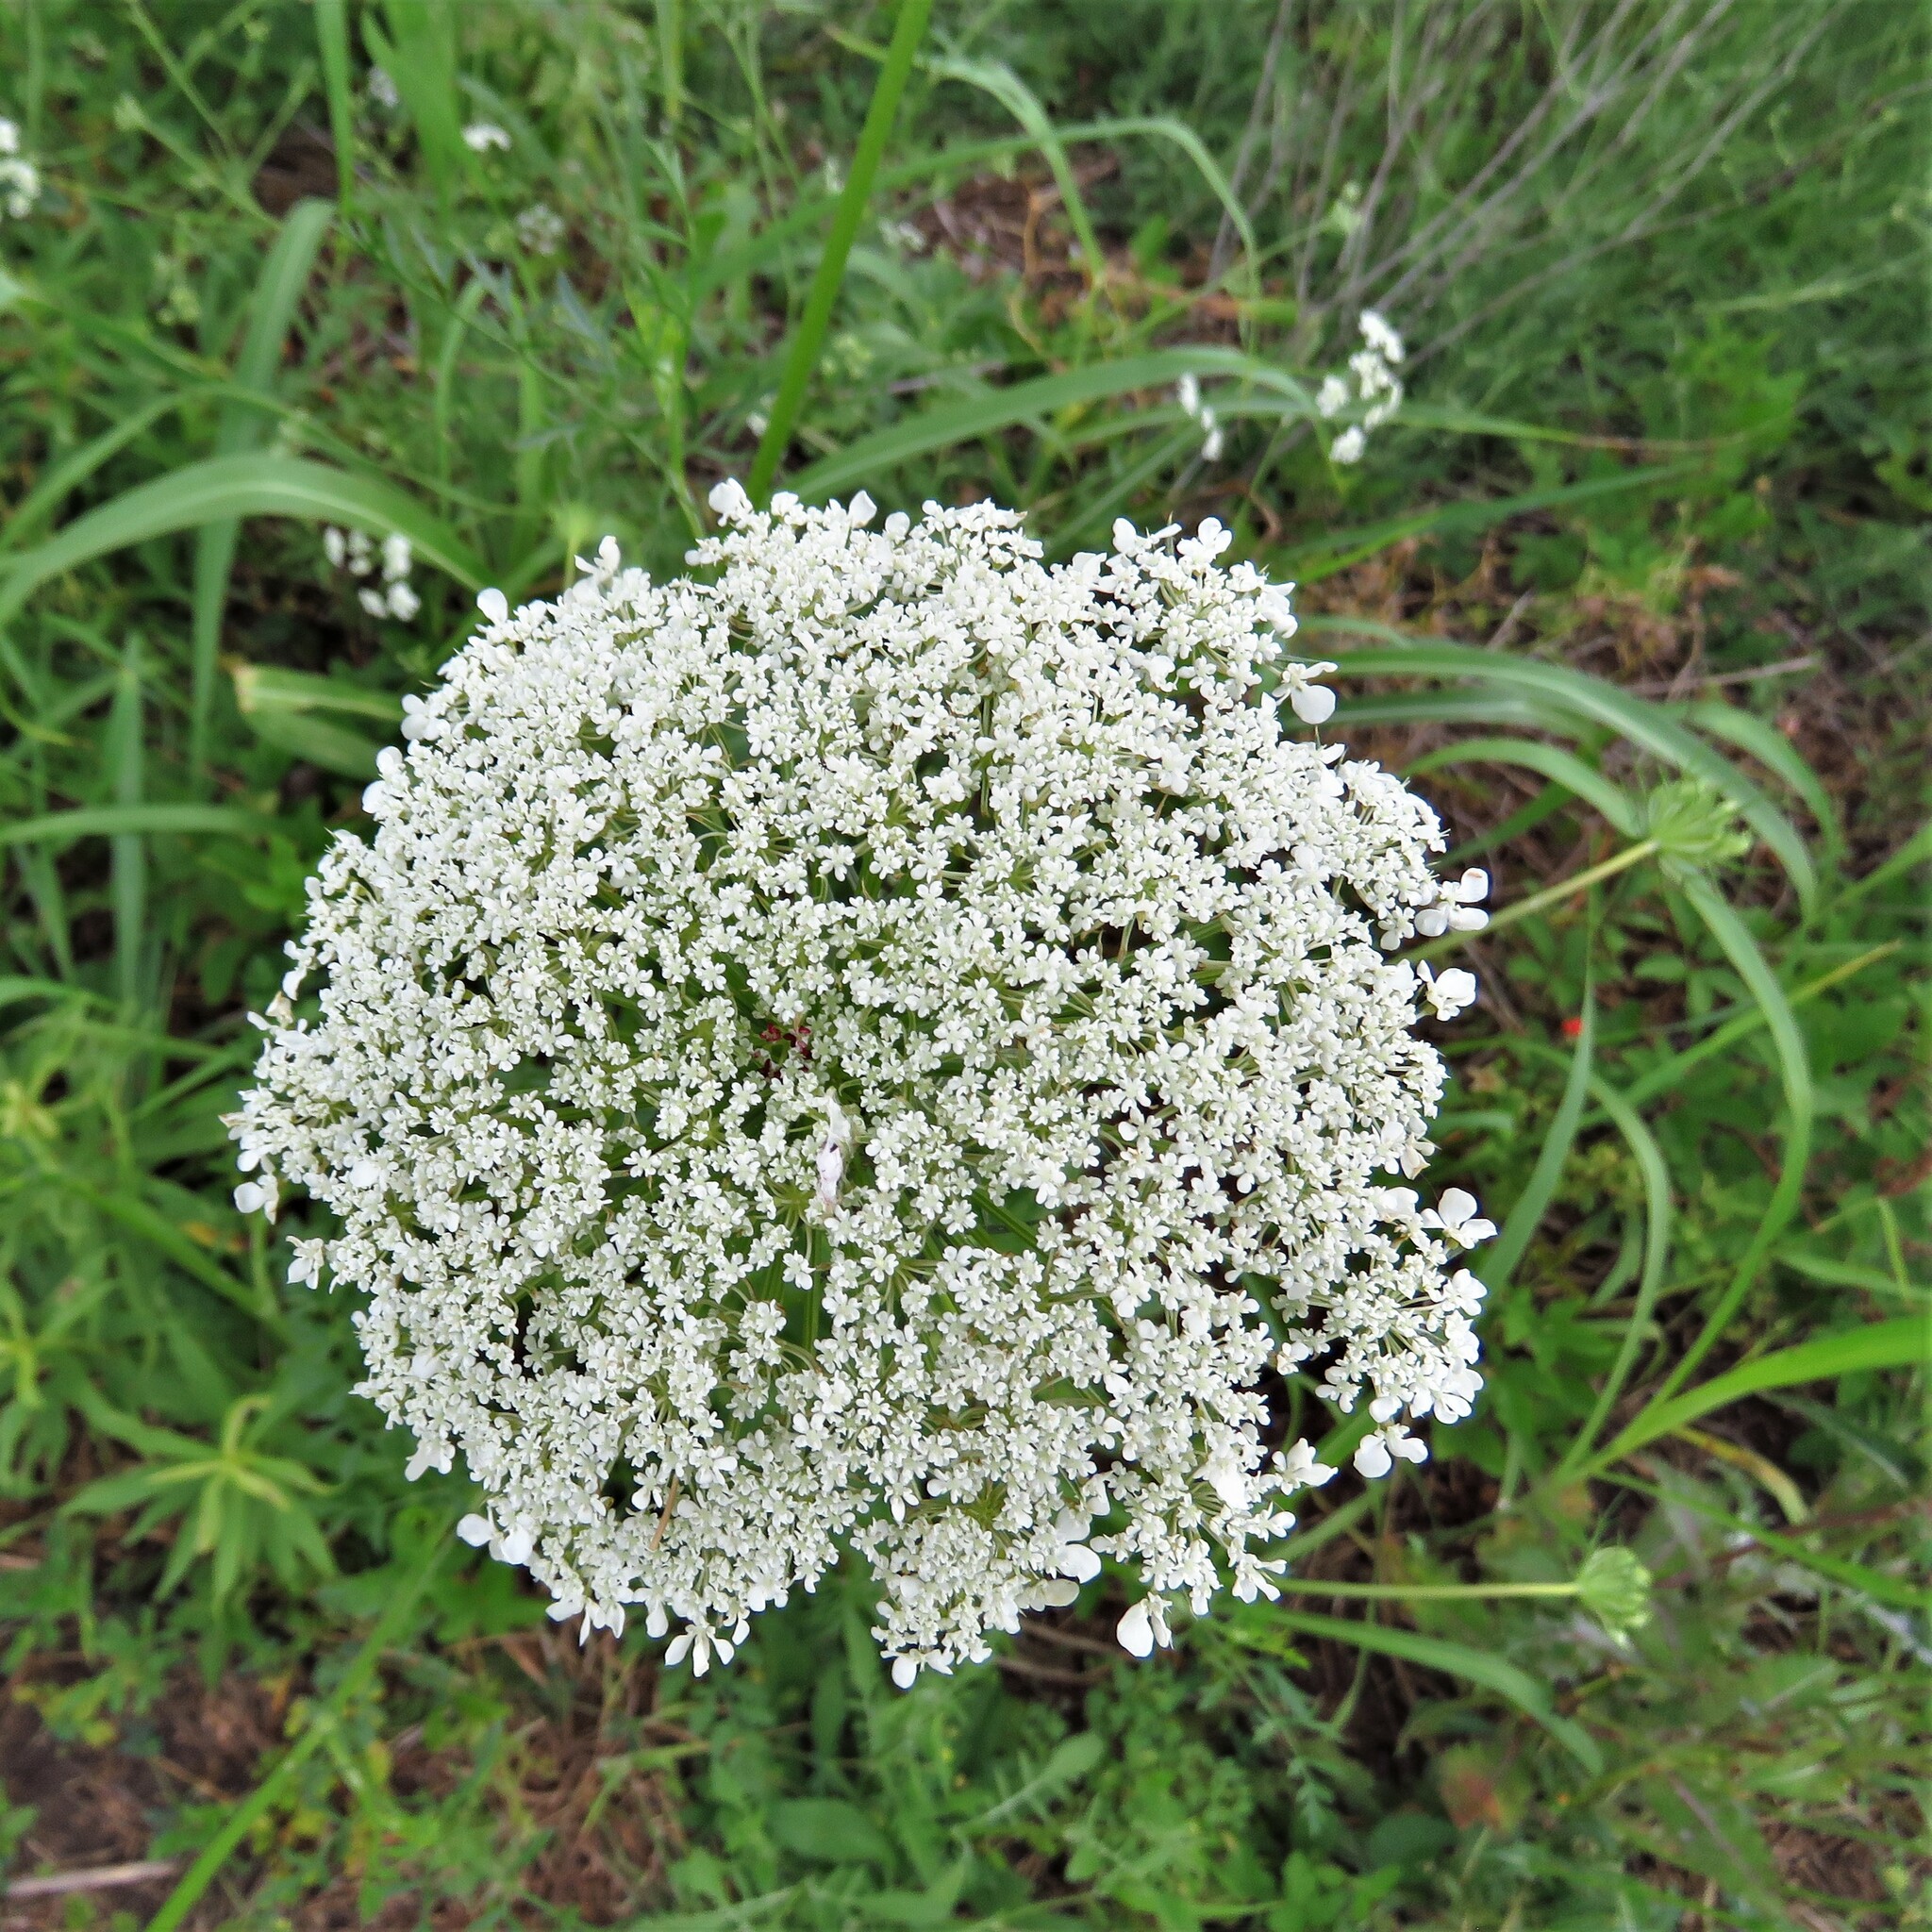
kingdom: Plantae
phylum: Tracheophyta
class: Magnoliopsida
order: Apiales
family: Apiaceae
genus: Daucus
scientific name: Daucus carota
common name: Wild carrot
